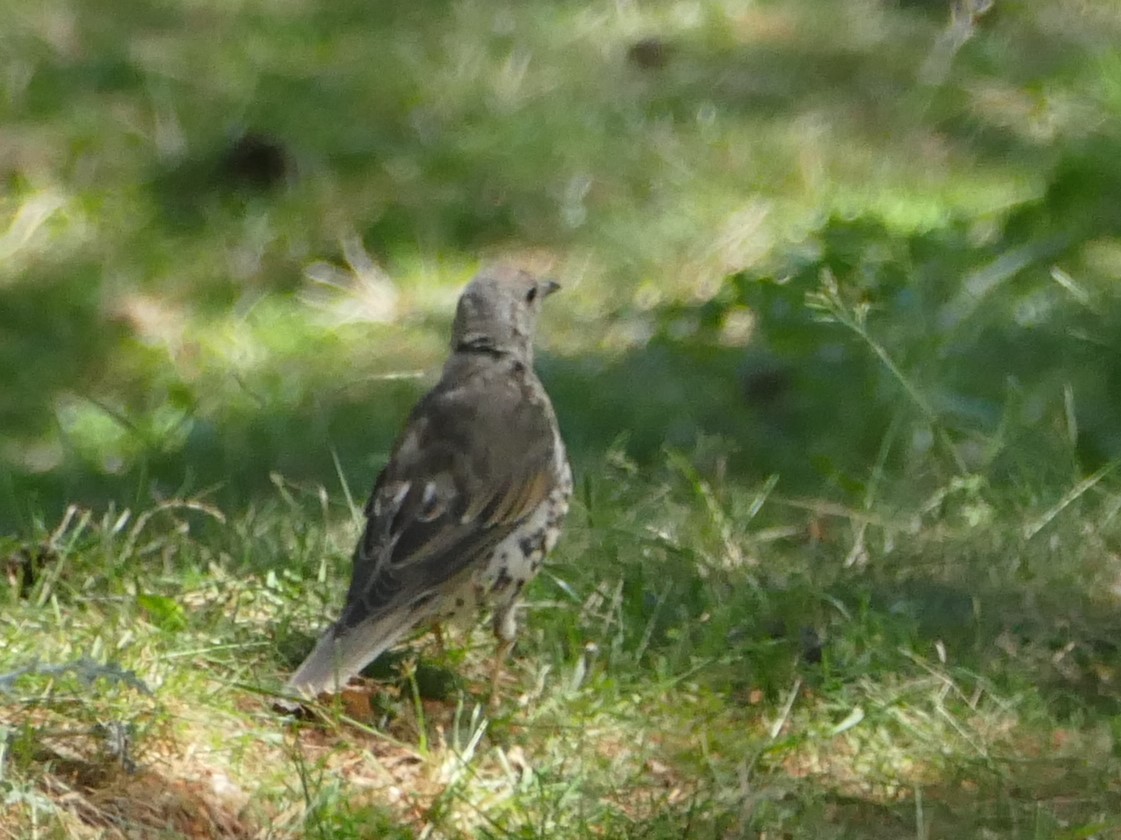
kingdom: Animalia
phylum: Chordata
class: Aves
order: Passeriformes
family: Turdidae
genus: Turdus
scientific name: Turdus viscivorus
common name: Mistle thrush
